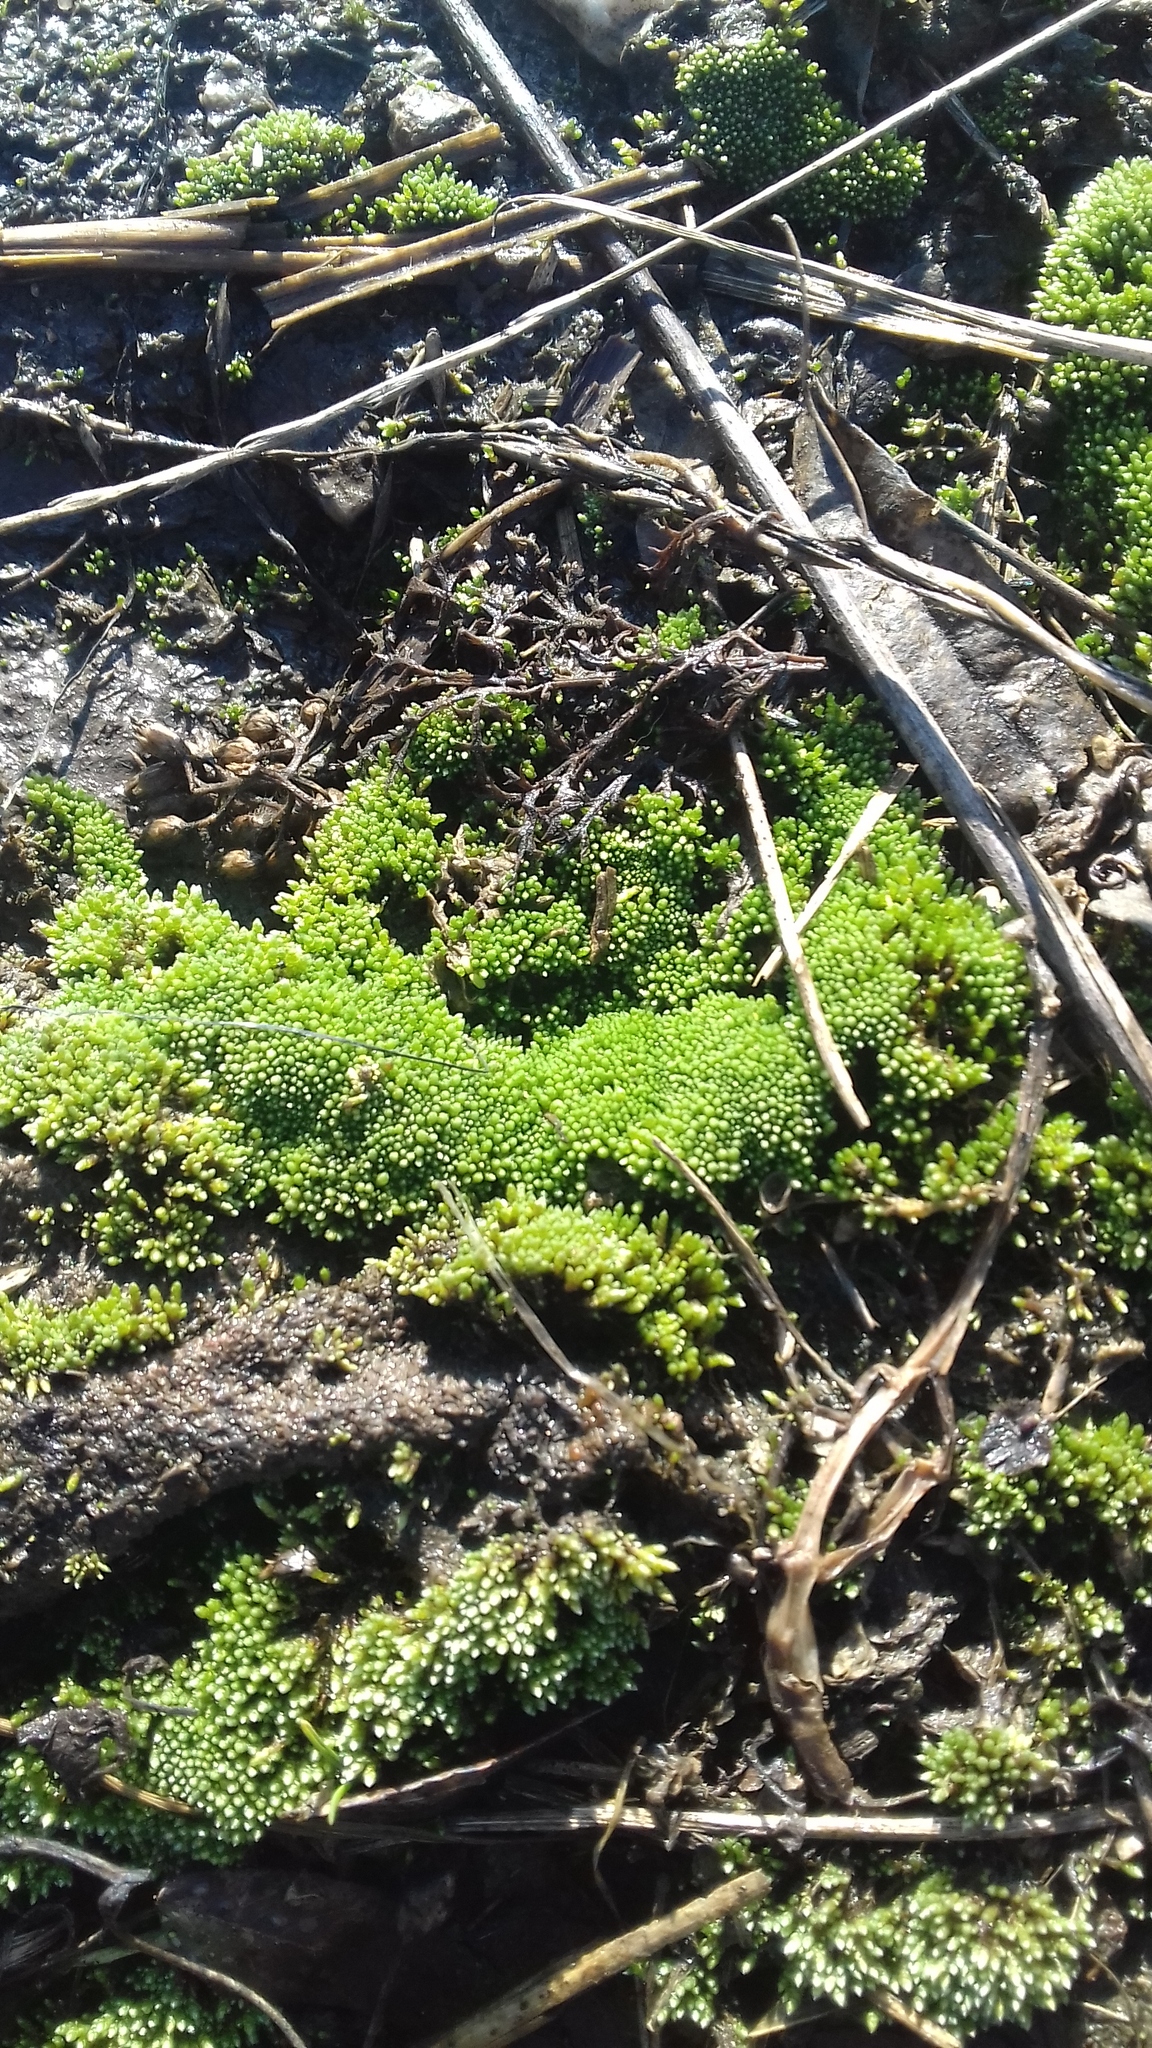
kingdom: Plantae
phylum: Bryophyta
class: Bryopsida
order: Bryales
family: Bryaceae
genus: Bryum
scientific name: Bryum argenteum
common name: Silver-moss
